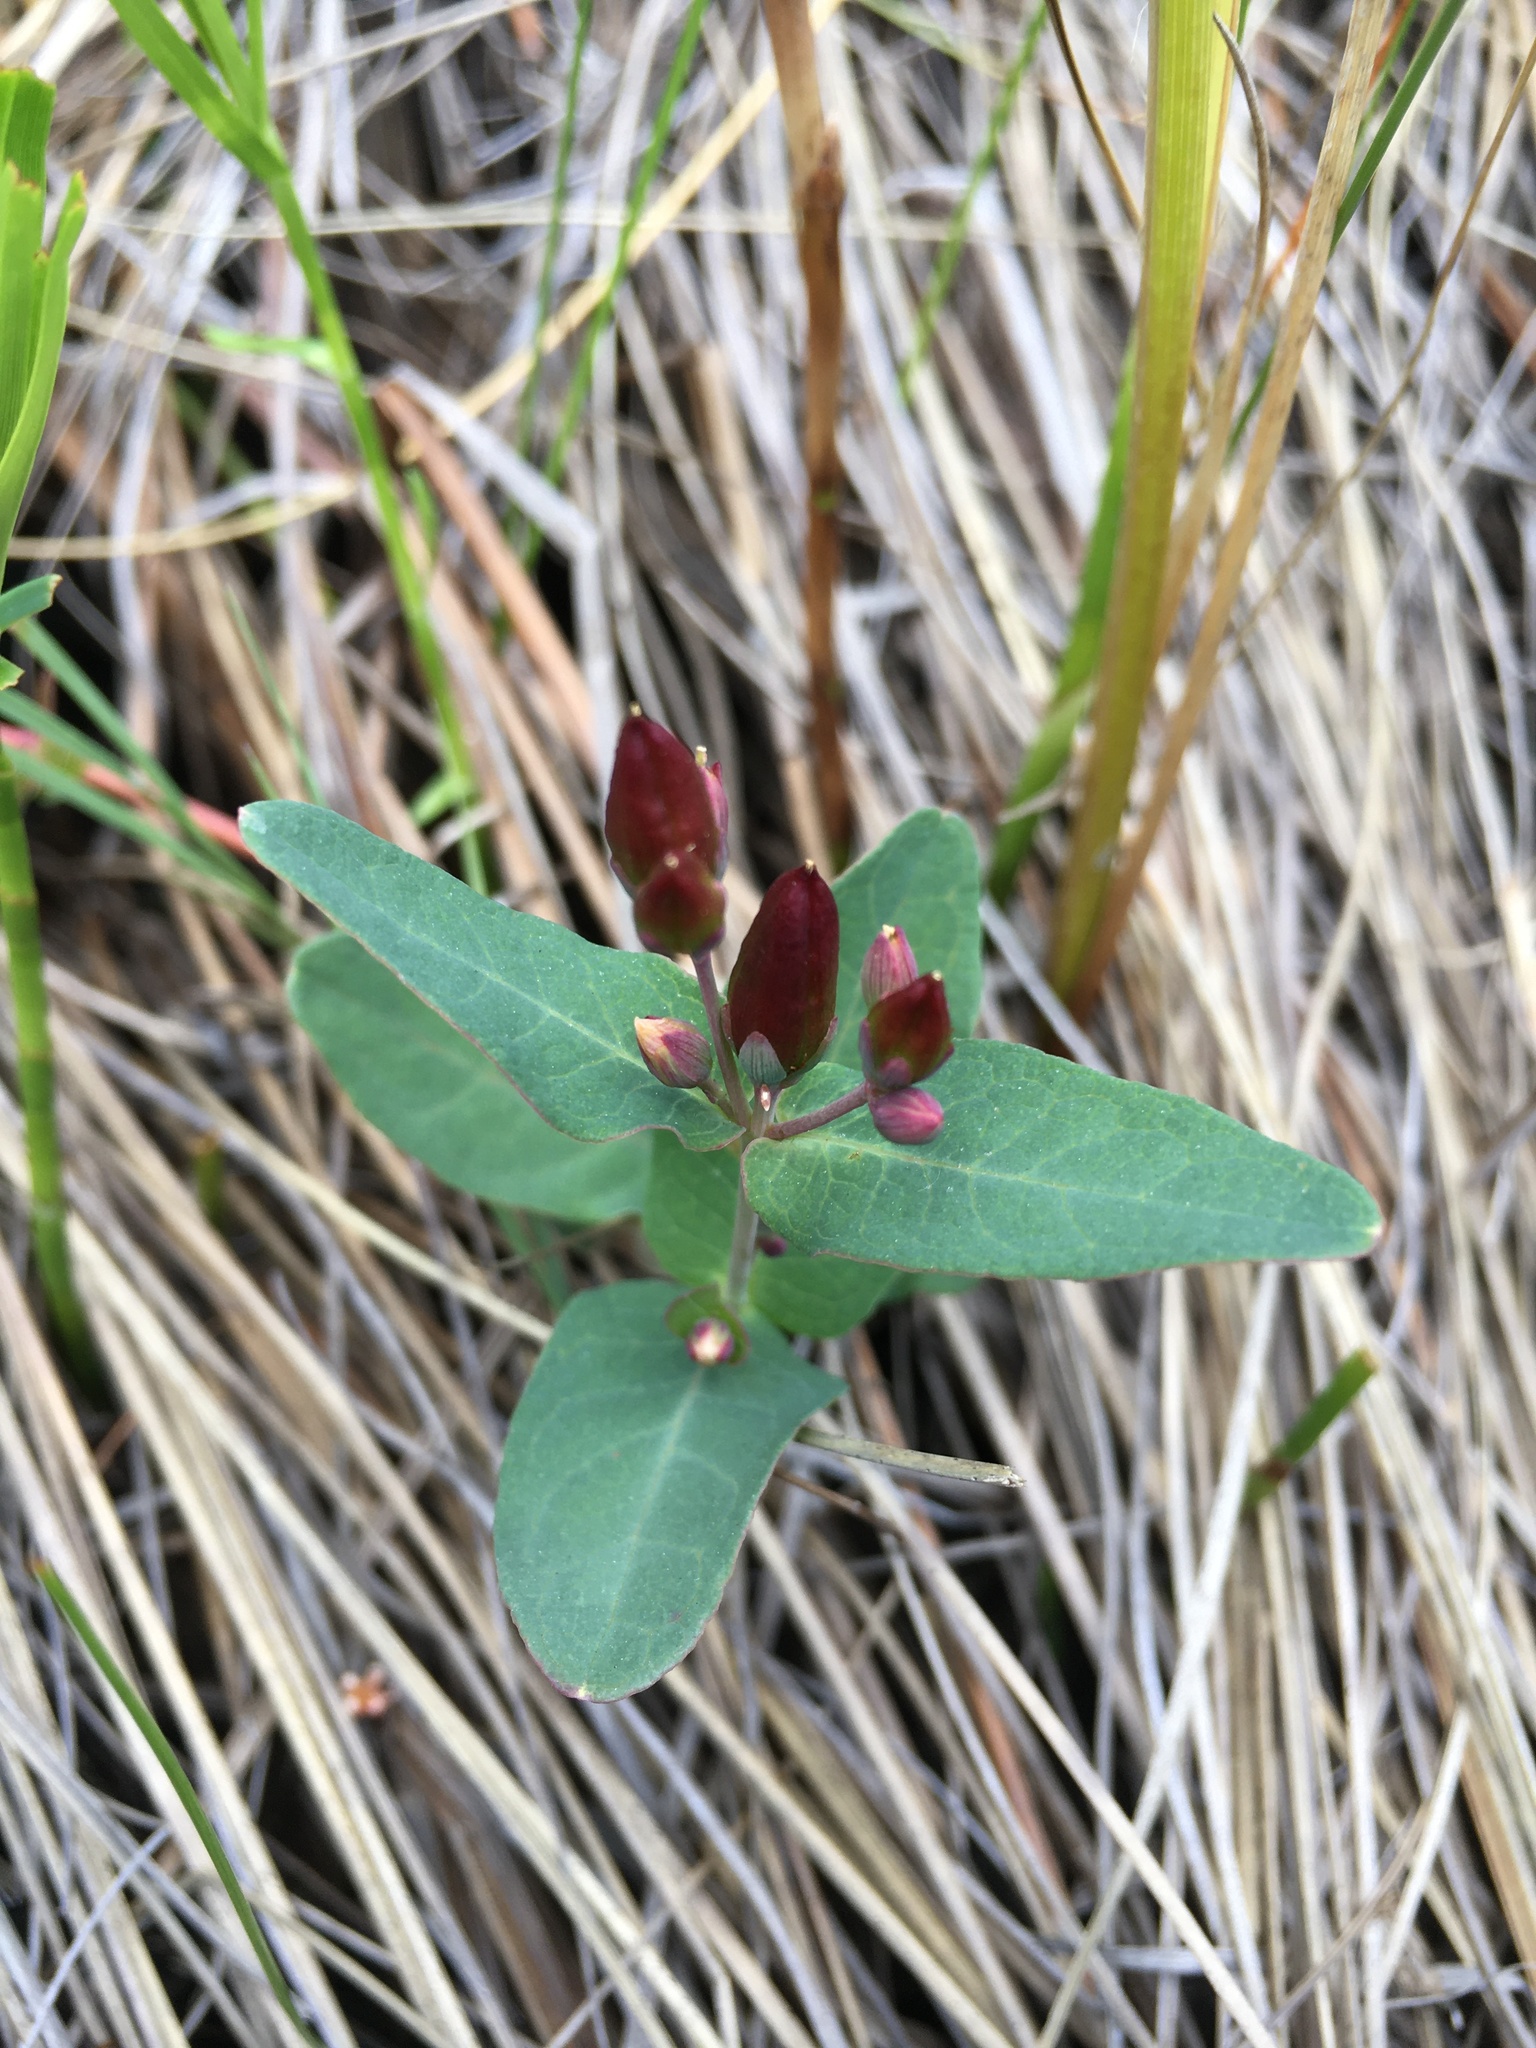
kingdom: Plantae
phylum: Tracheophyta
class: Magnoliopsida
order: Malpighiales
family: Hypericaceae
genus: Triadenum
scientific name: Triadenum fraseri
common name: Fraser's marsh st. johnswort
